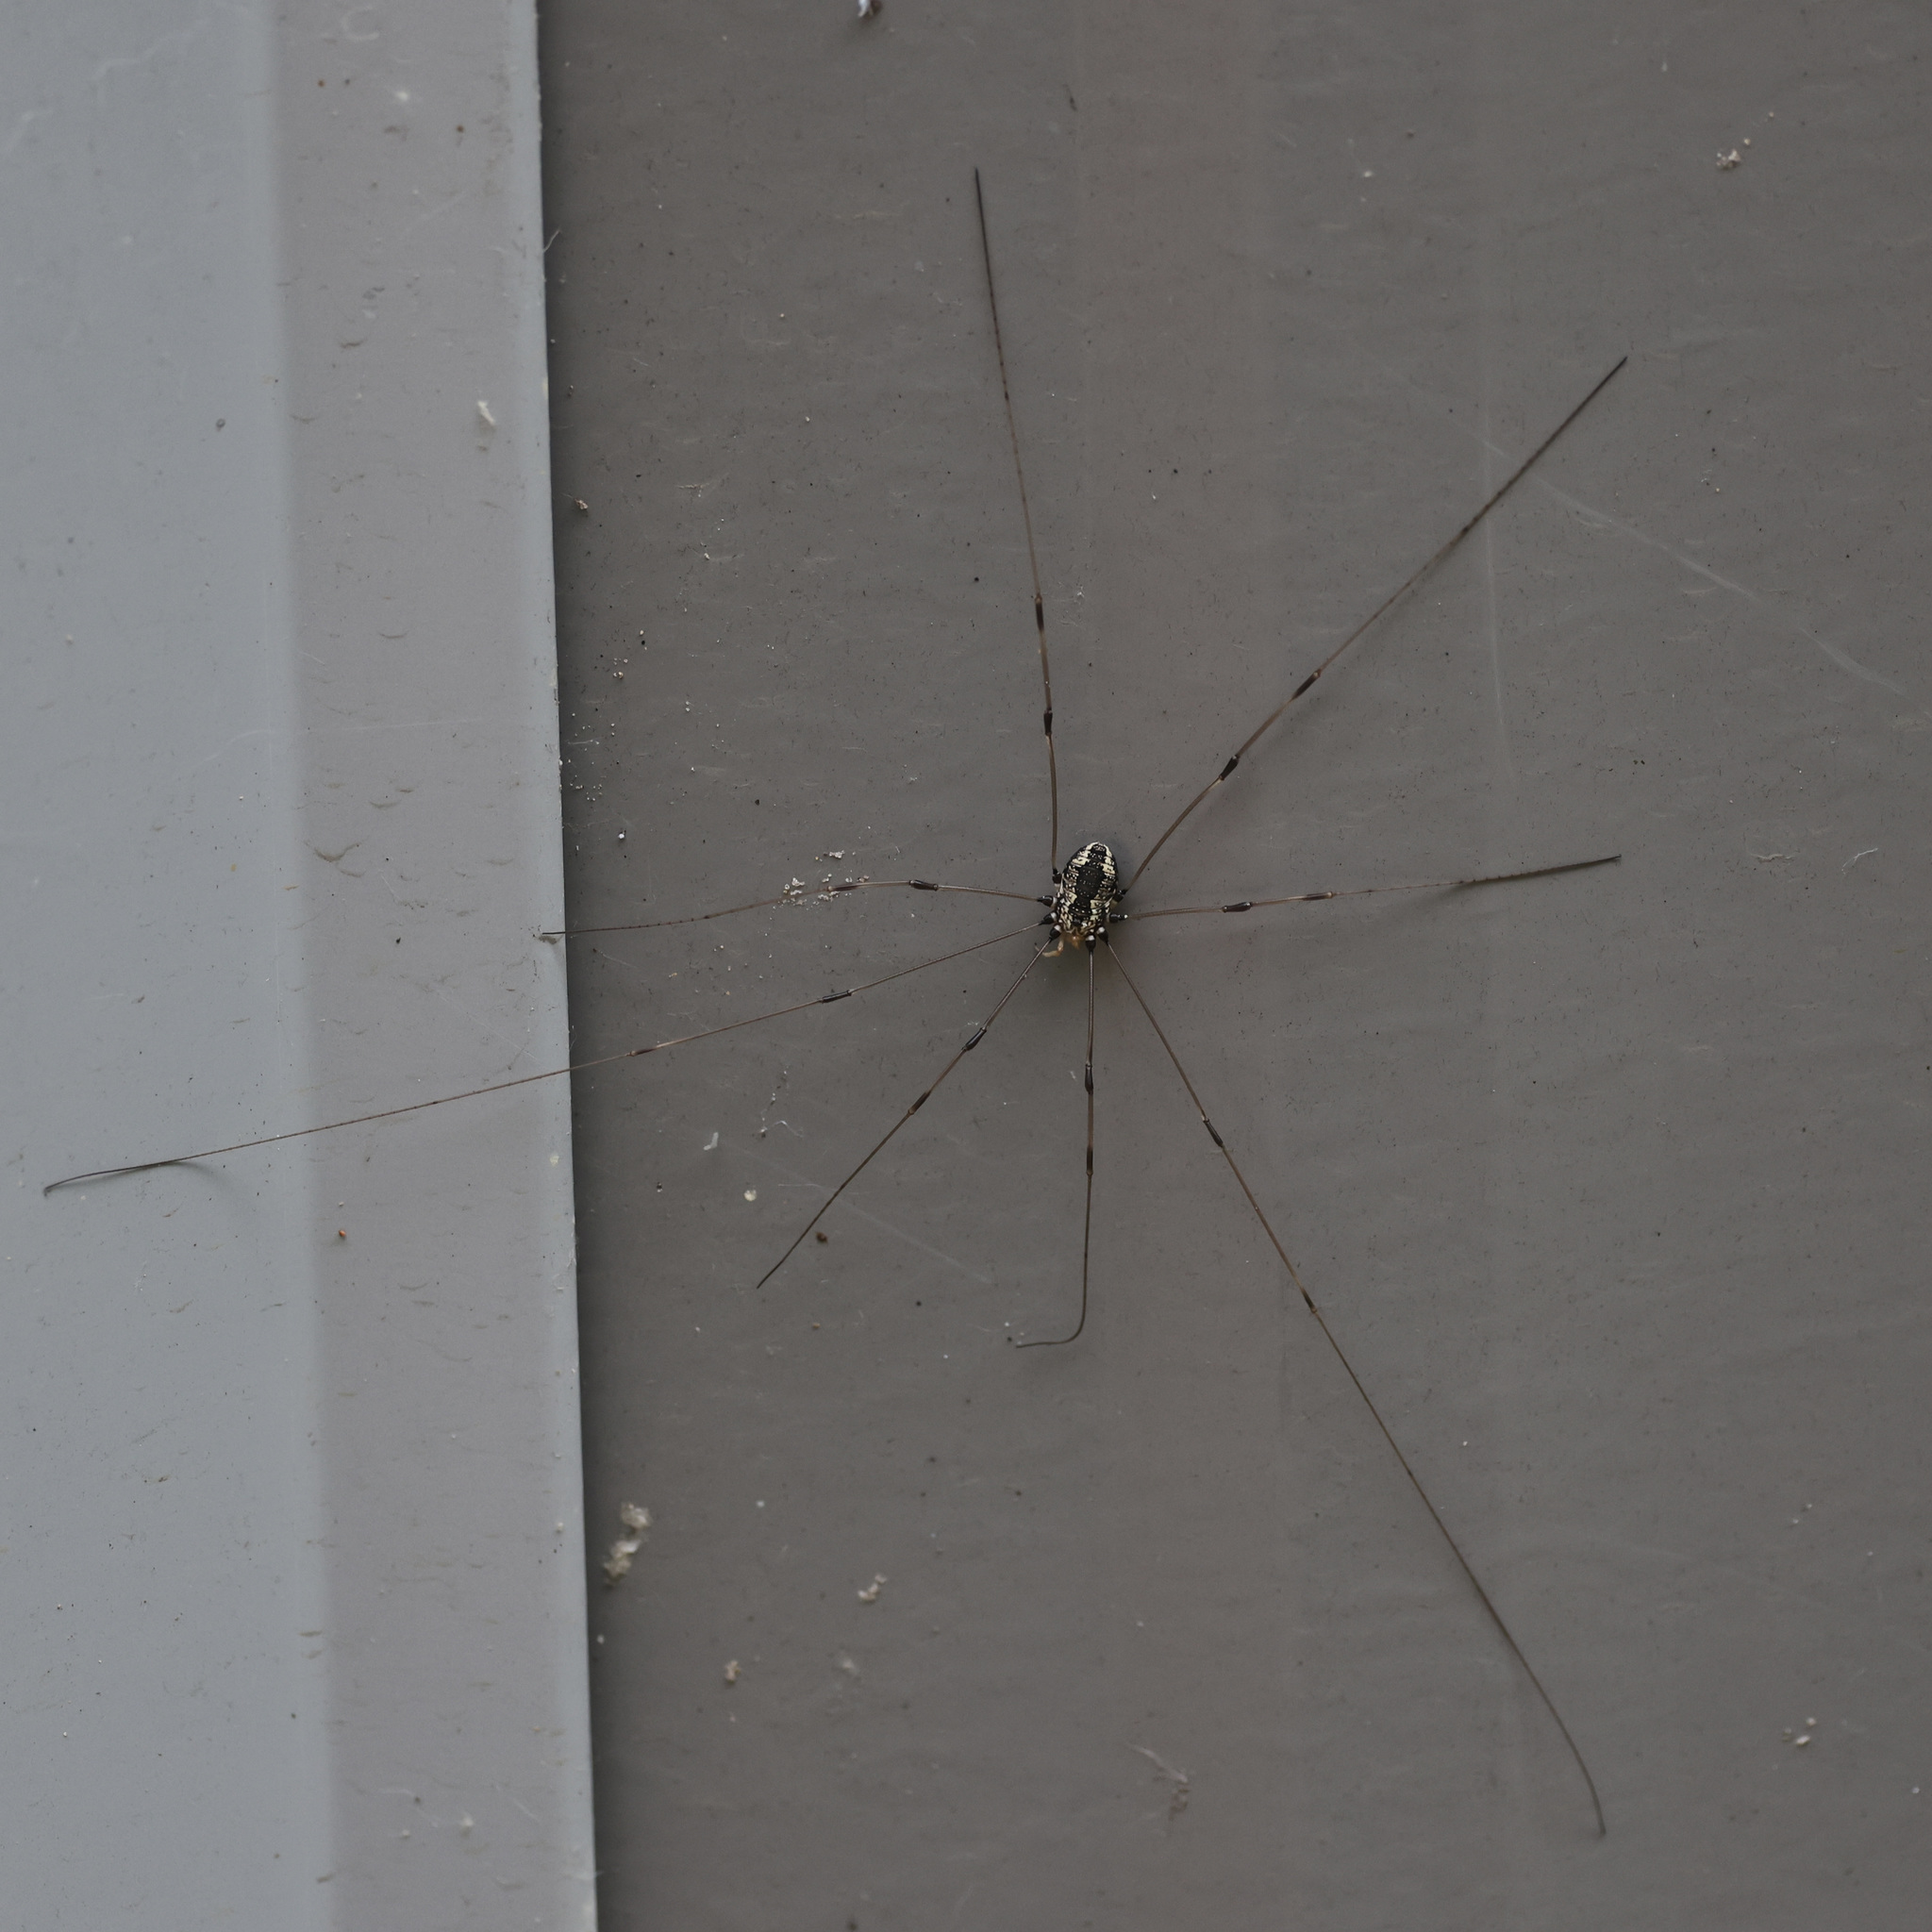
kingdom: Animalia
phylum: Arthropoda
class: Arachnida
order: Opiliones
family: Sclerosomatidae
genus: Leiobunum
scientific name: Leiobunum vittatum
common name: Eastern harvestman
